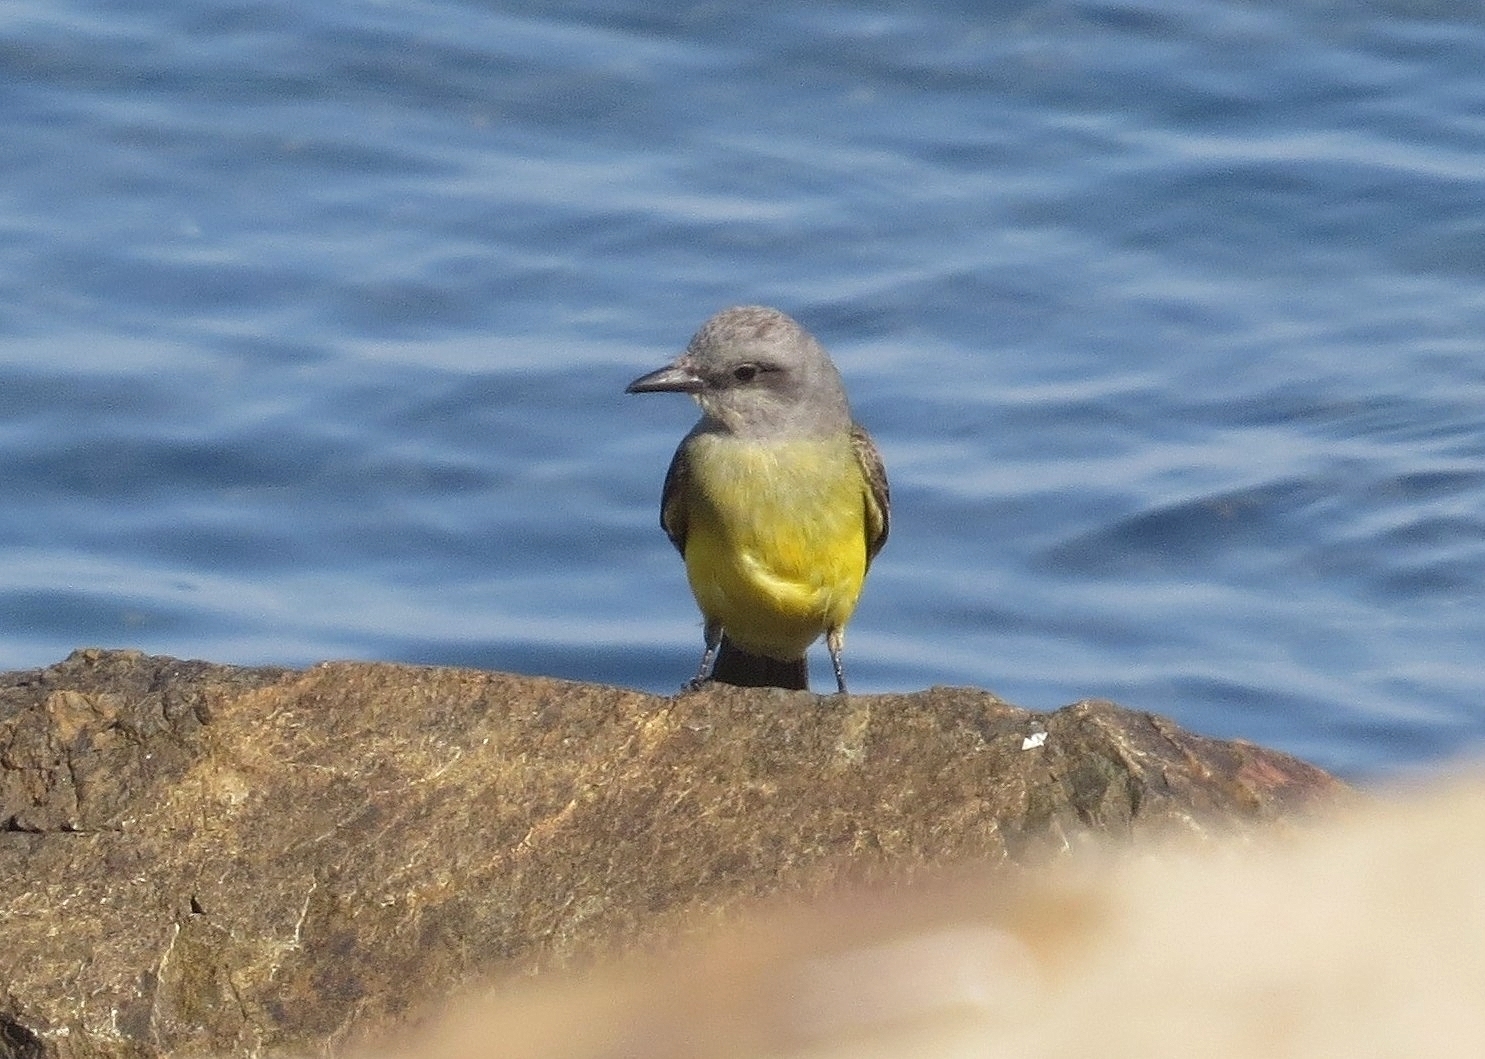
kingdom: Animalia
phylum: Chordata
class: Aves
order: Passeriformes
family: Tyrannidae
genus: Tyrannus
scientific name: Tyrannus melancholicus
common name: Tropical kingbird
